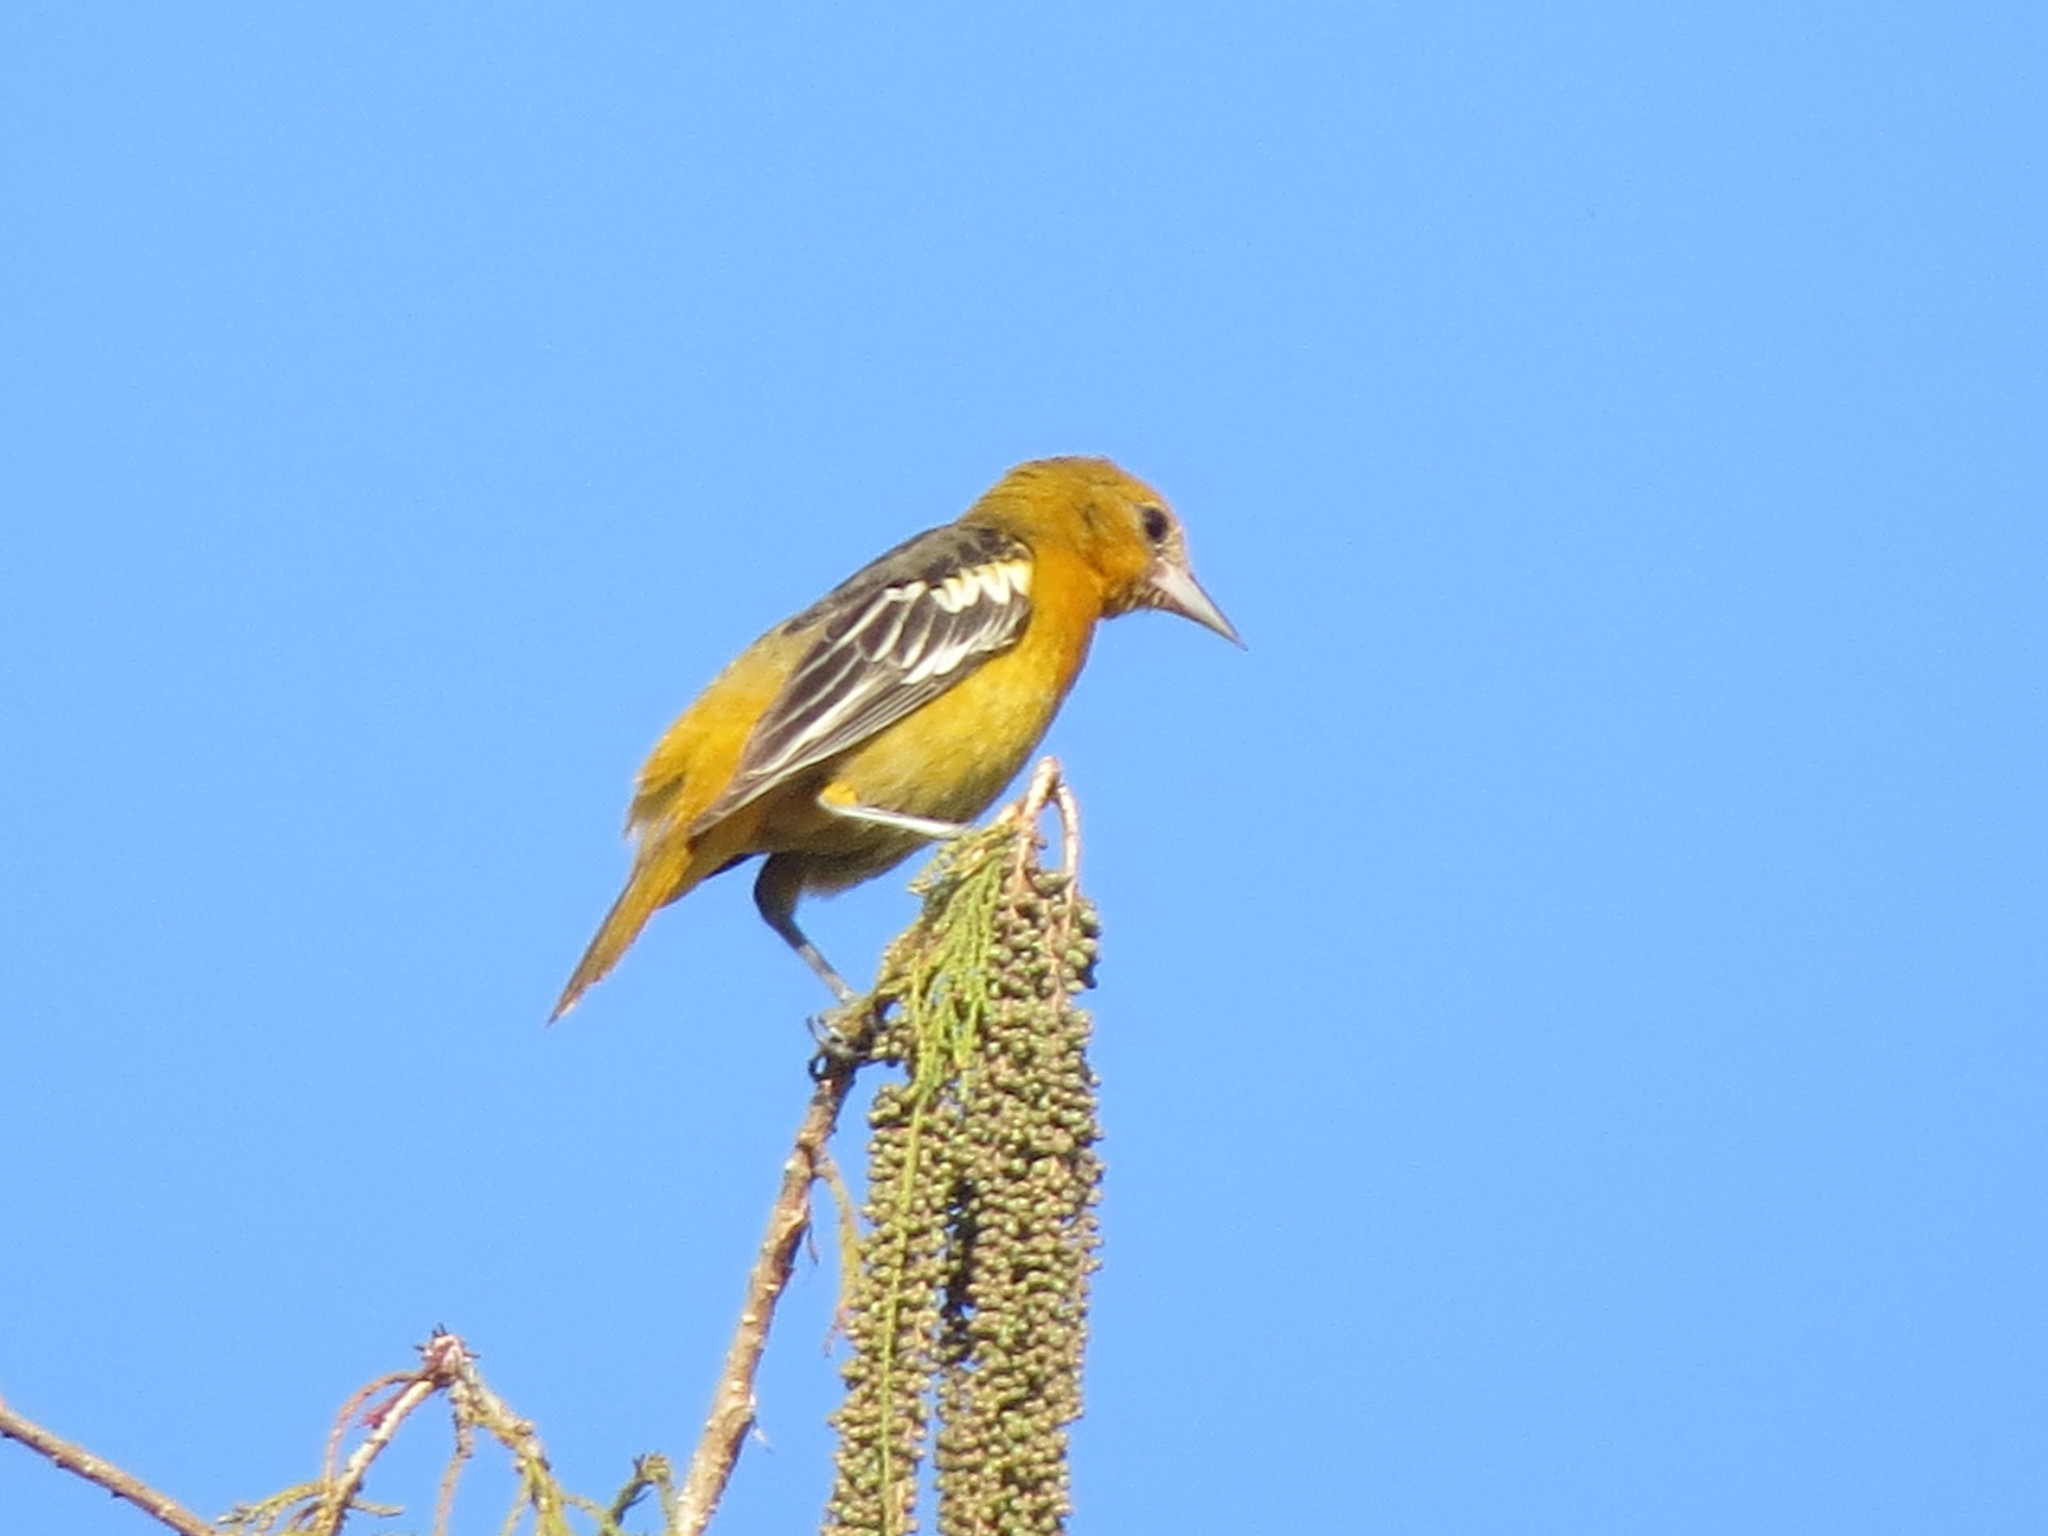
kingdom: Animalia
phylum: Chordata
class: Aves
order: Passeriformes
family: Icteridae
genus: Icterus
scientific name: Icterus galbula
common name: Baltimore oriole
